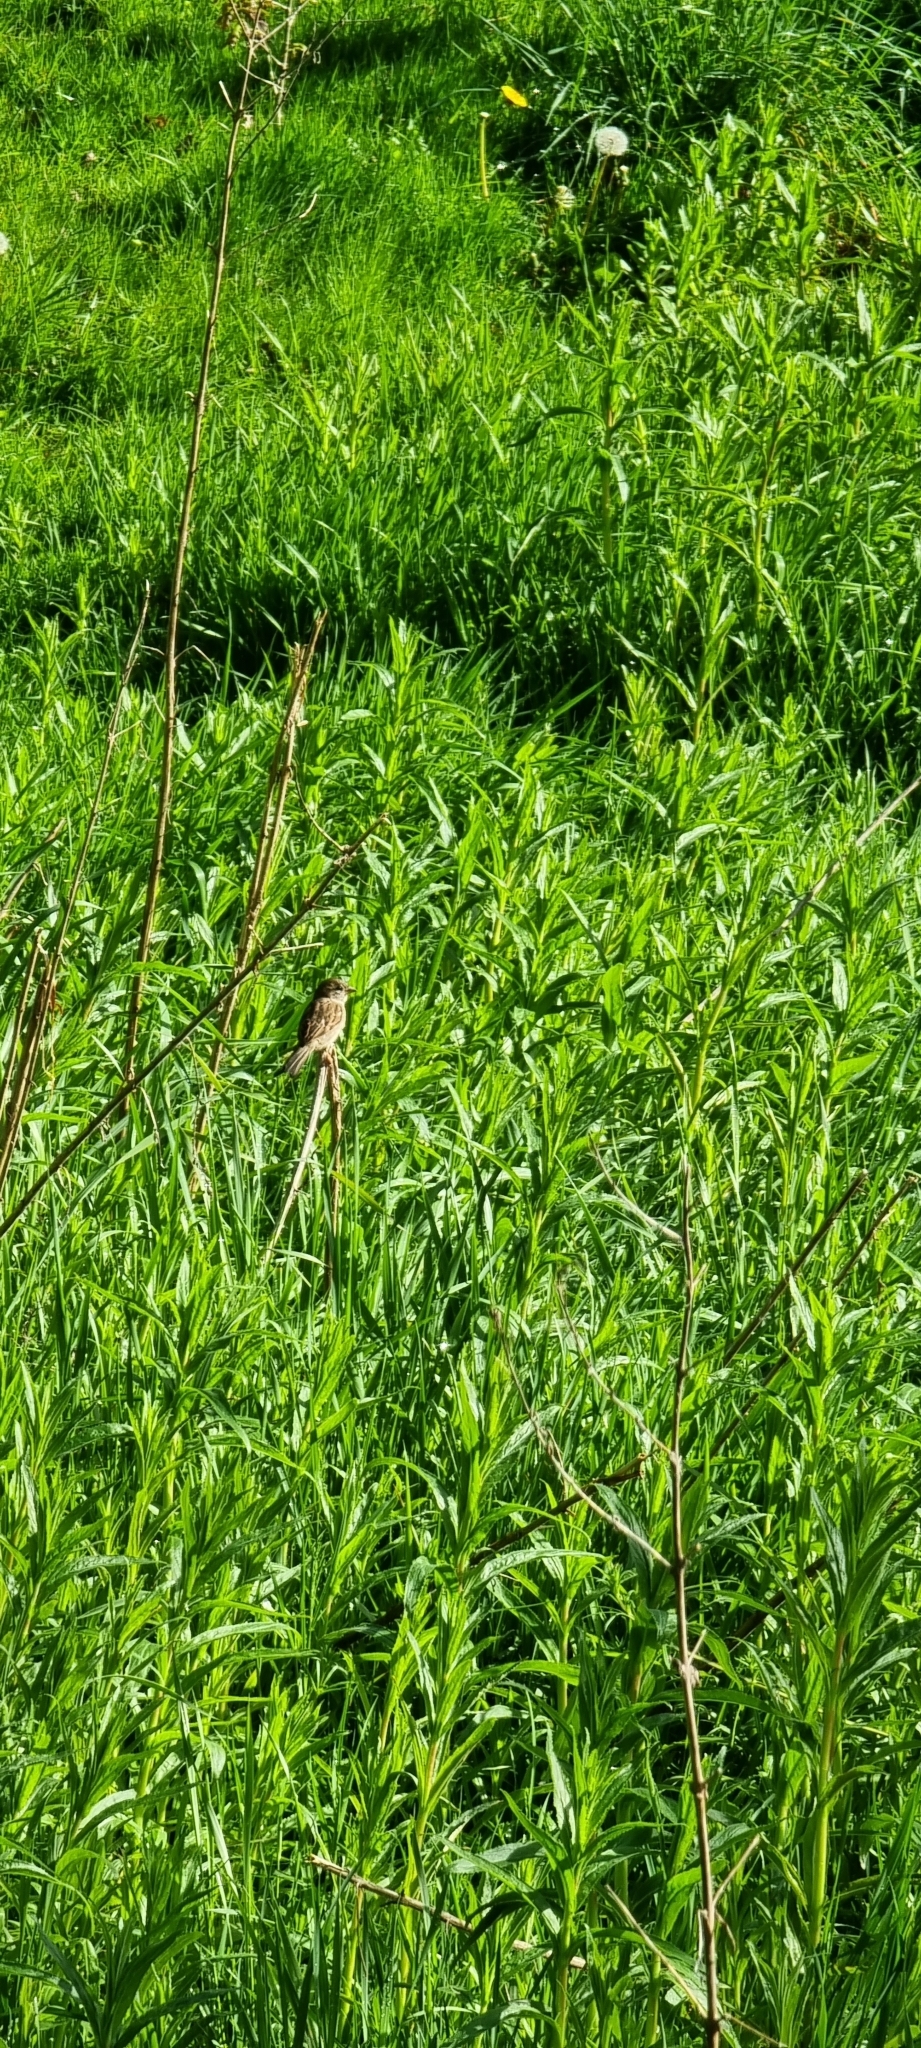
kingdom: Animalia
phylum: Chordata
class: Aves
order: Passeriformes
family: Passeridae
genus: Passer
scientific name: Passer domesticus
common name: House sparrow
